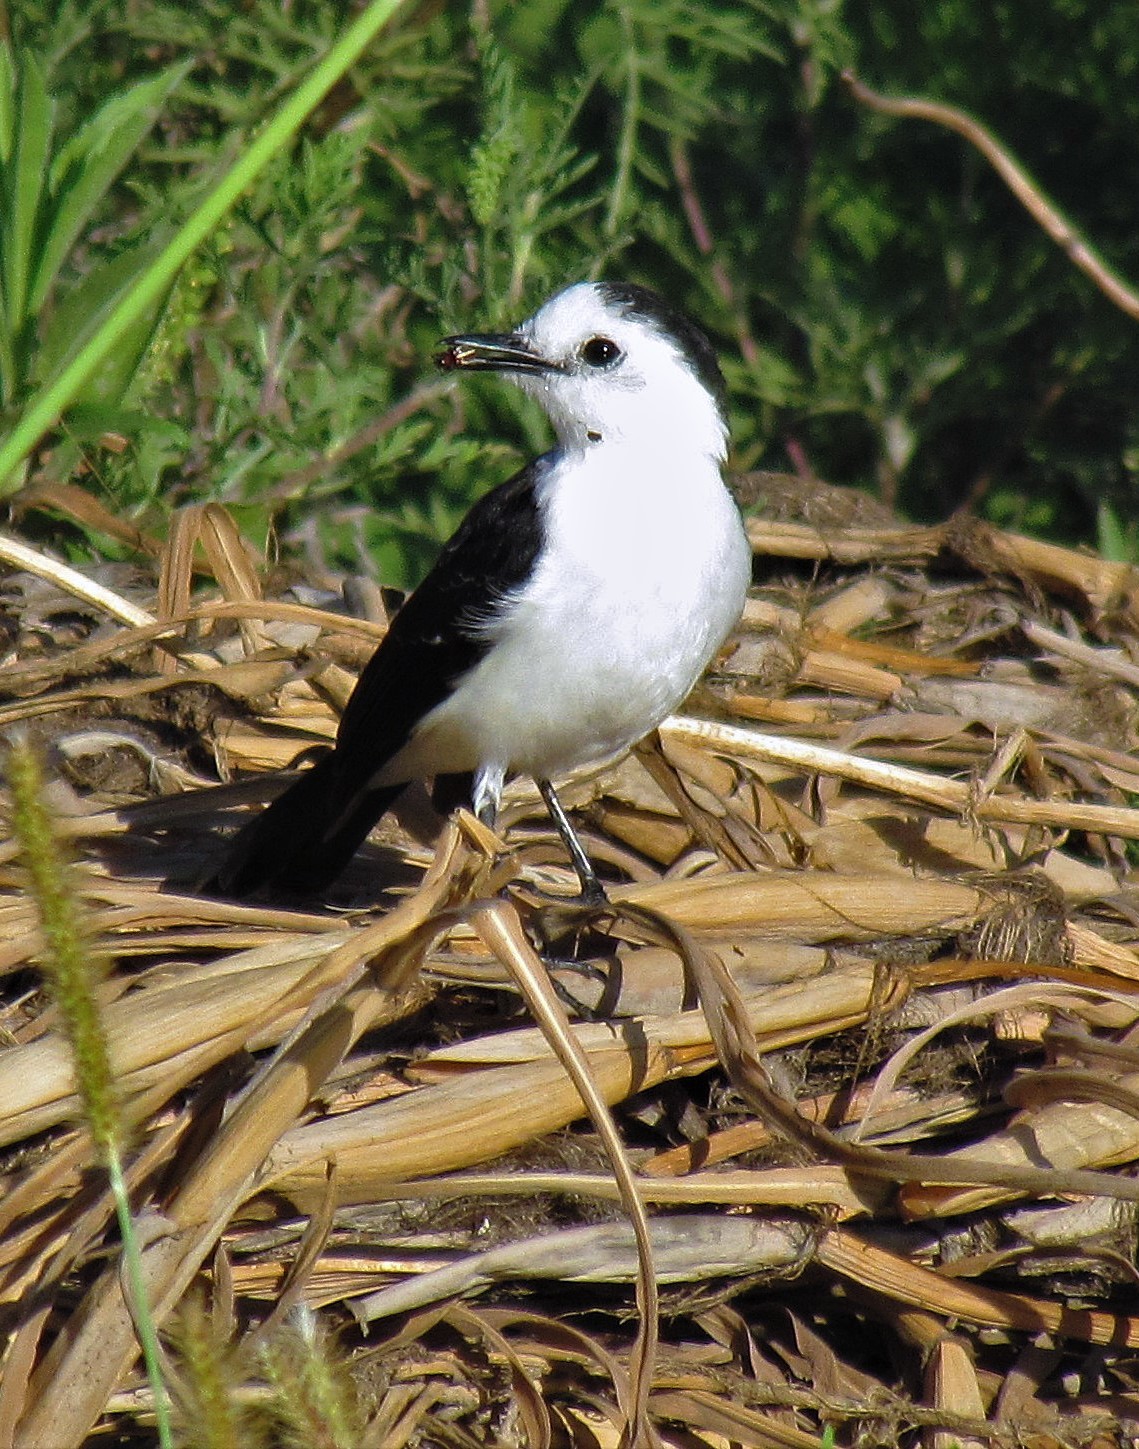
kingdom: Animalia
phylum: Chordata
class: Aves
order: Passeriformes
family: Tyrannidae
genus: Fluvicola
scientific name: Fluvicola pica
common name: Pied water-tyrant
